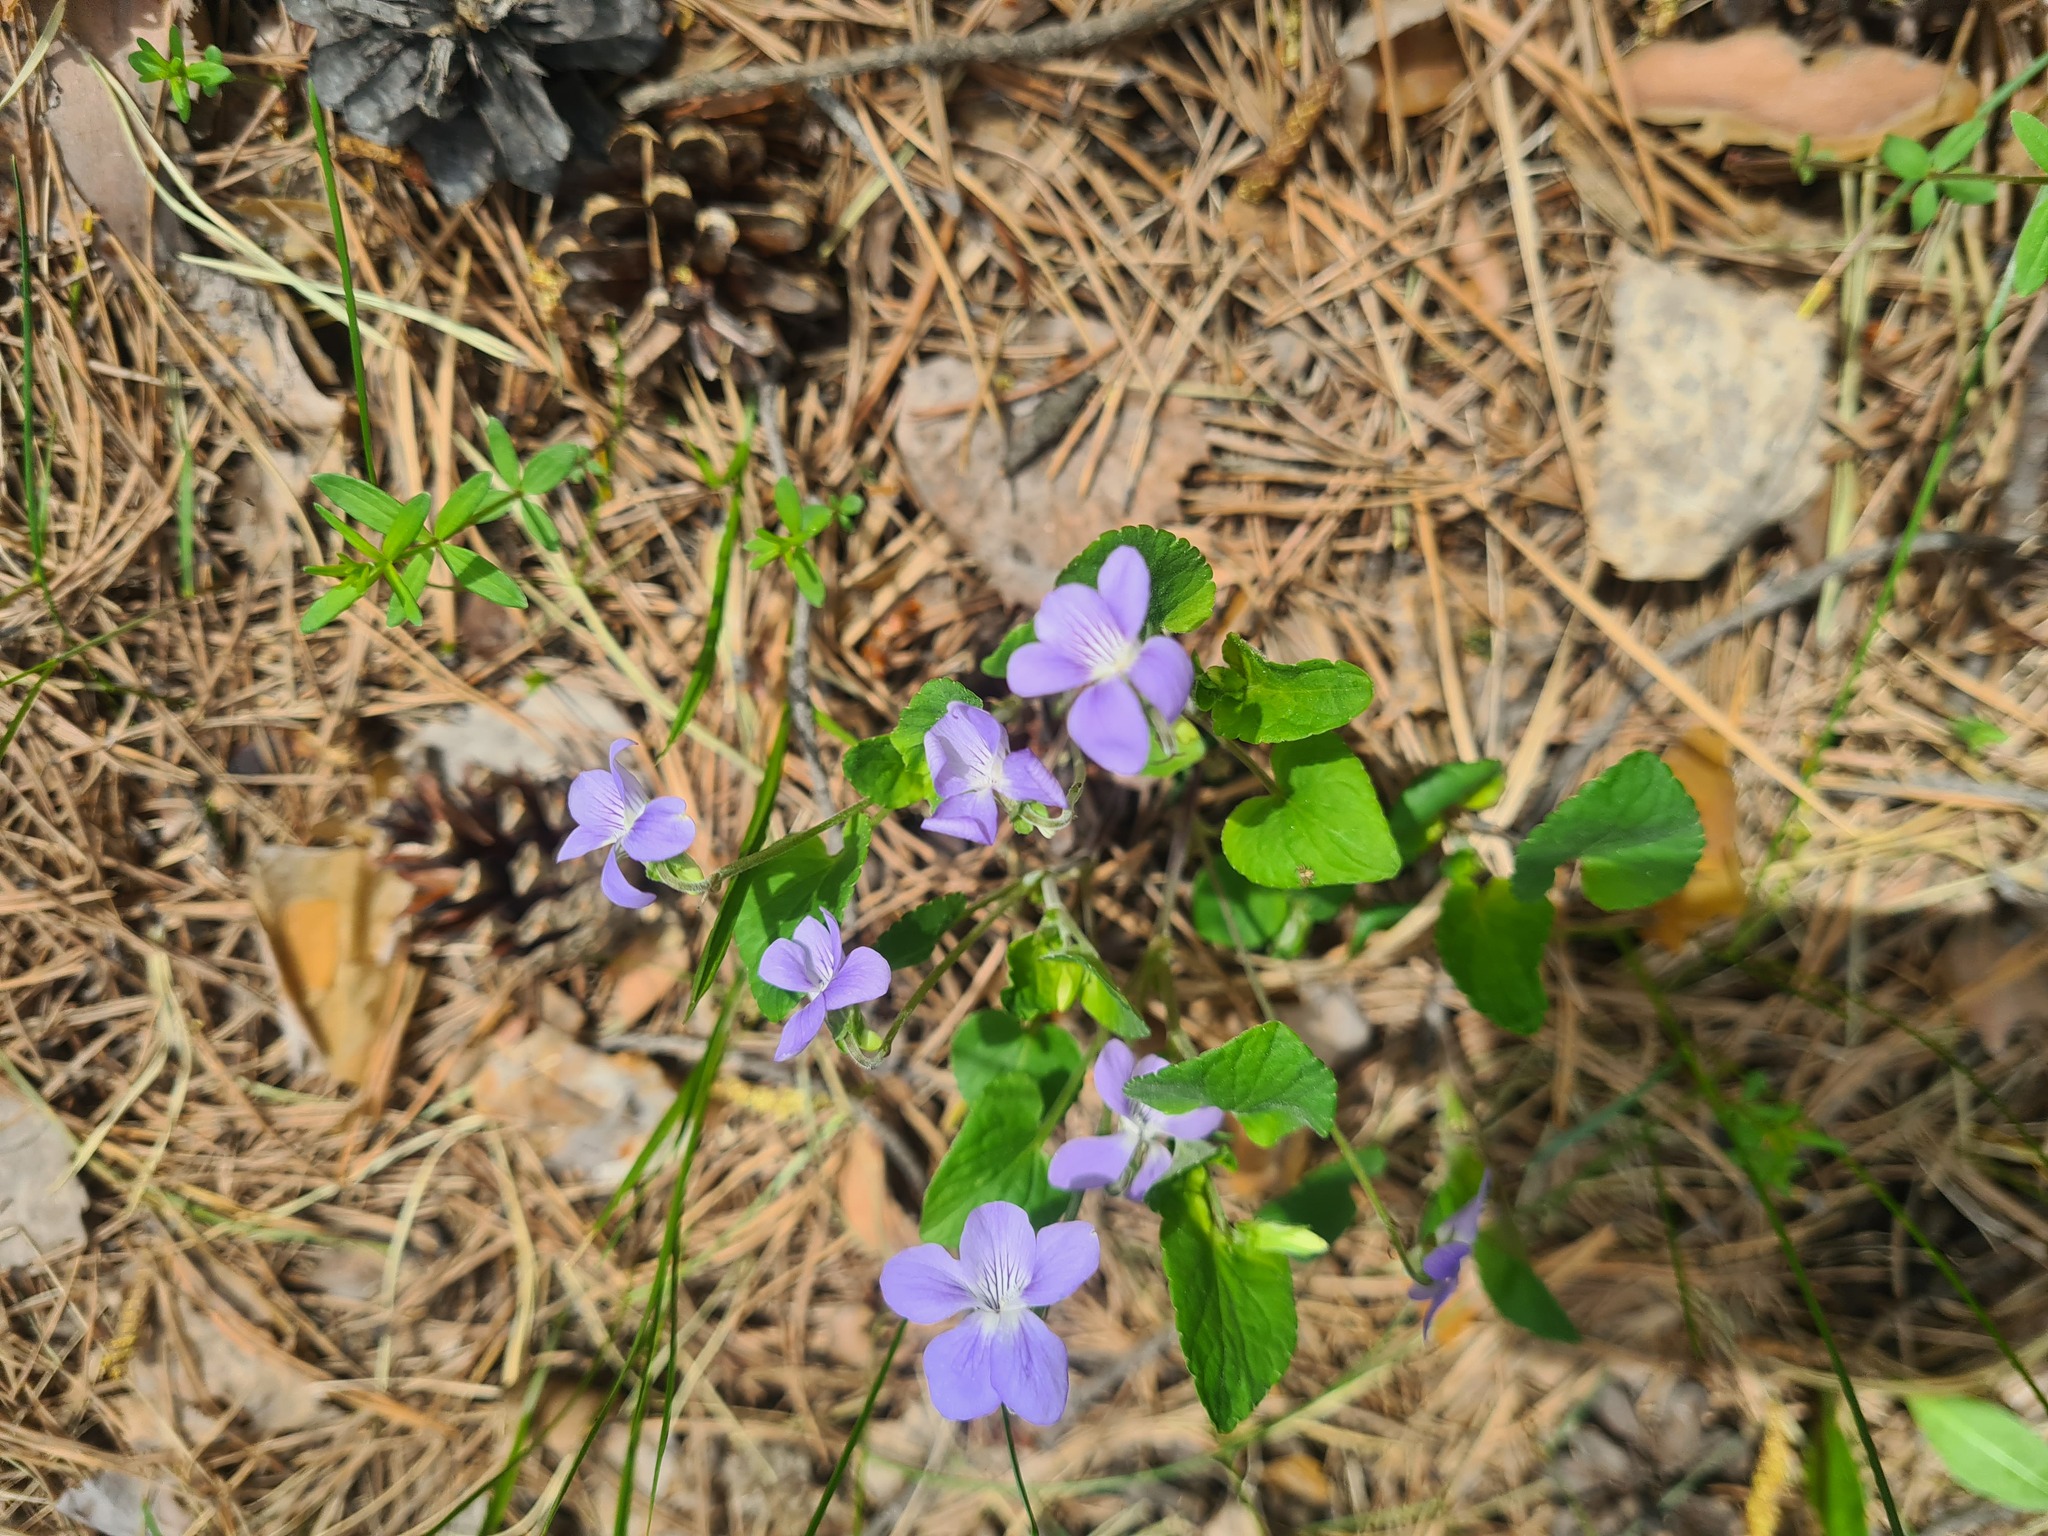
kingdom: Plantae
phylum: Tracheophyta
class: Magnoliopsida
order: Malpighiales
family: Violaceae
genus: Viola
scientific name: Viola
